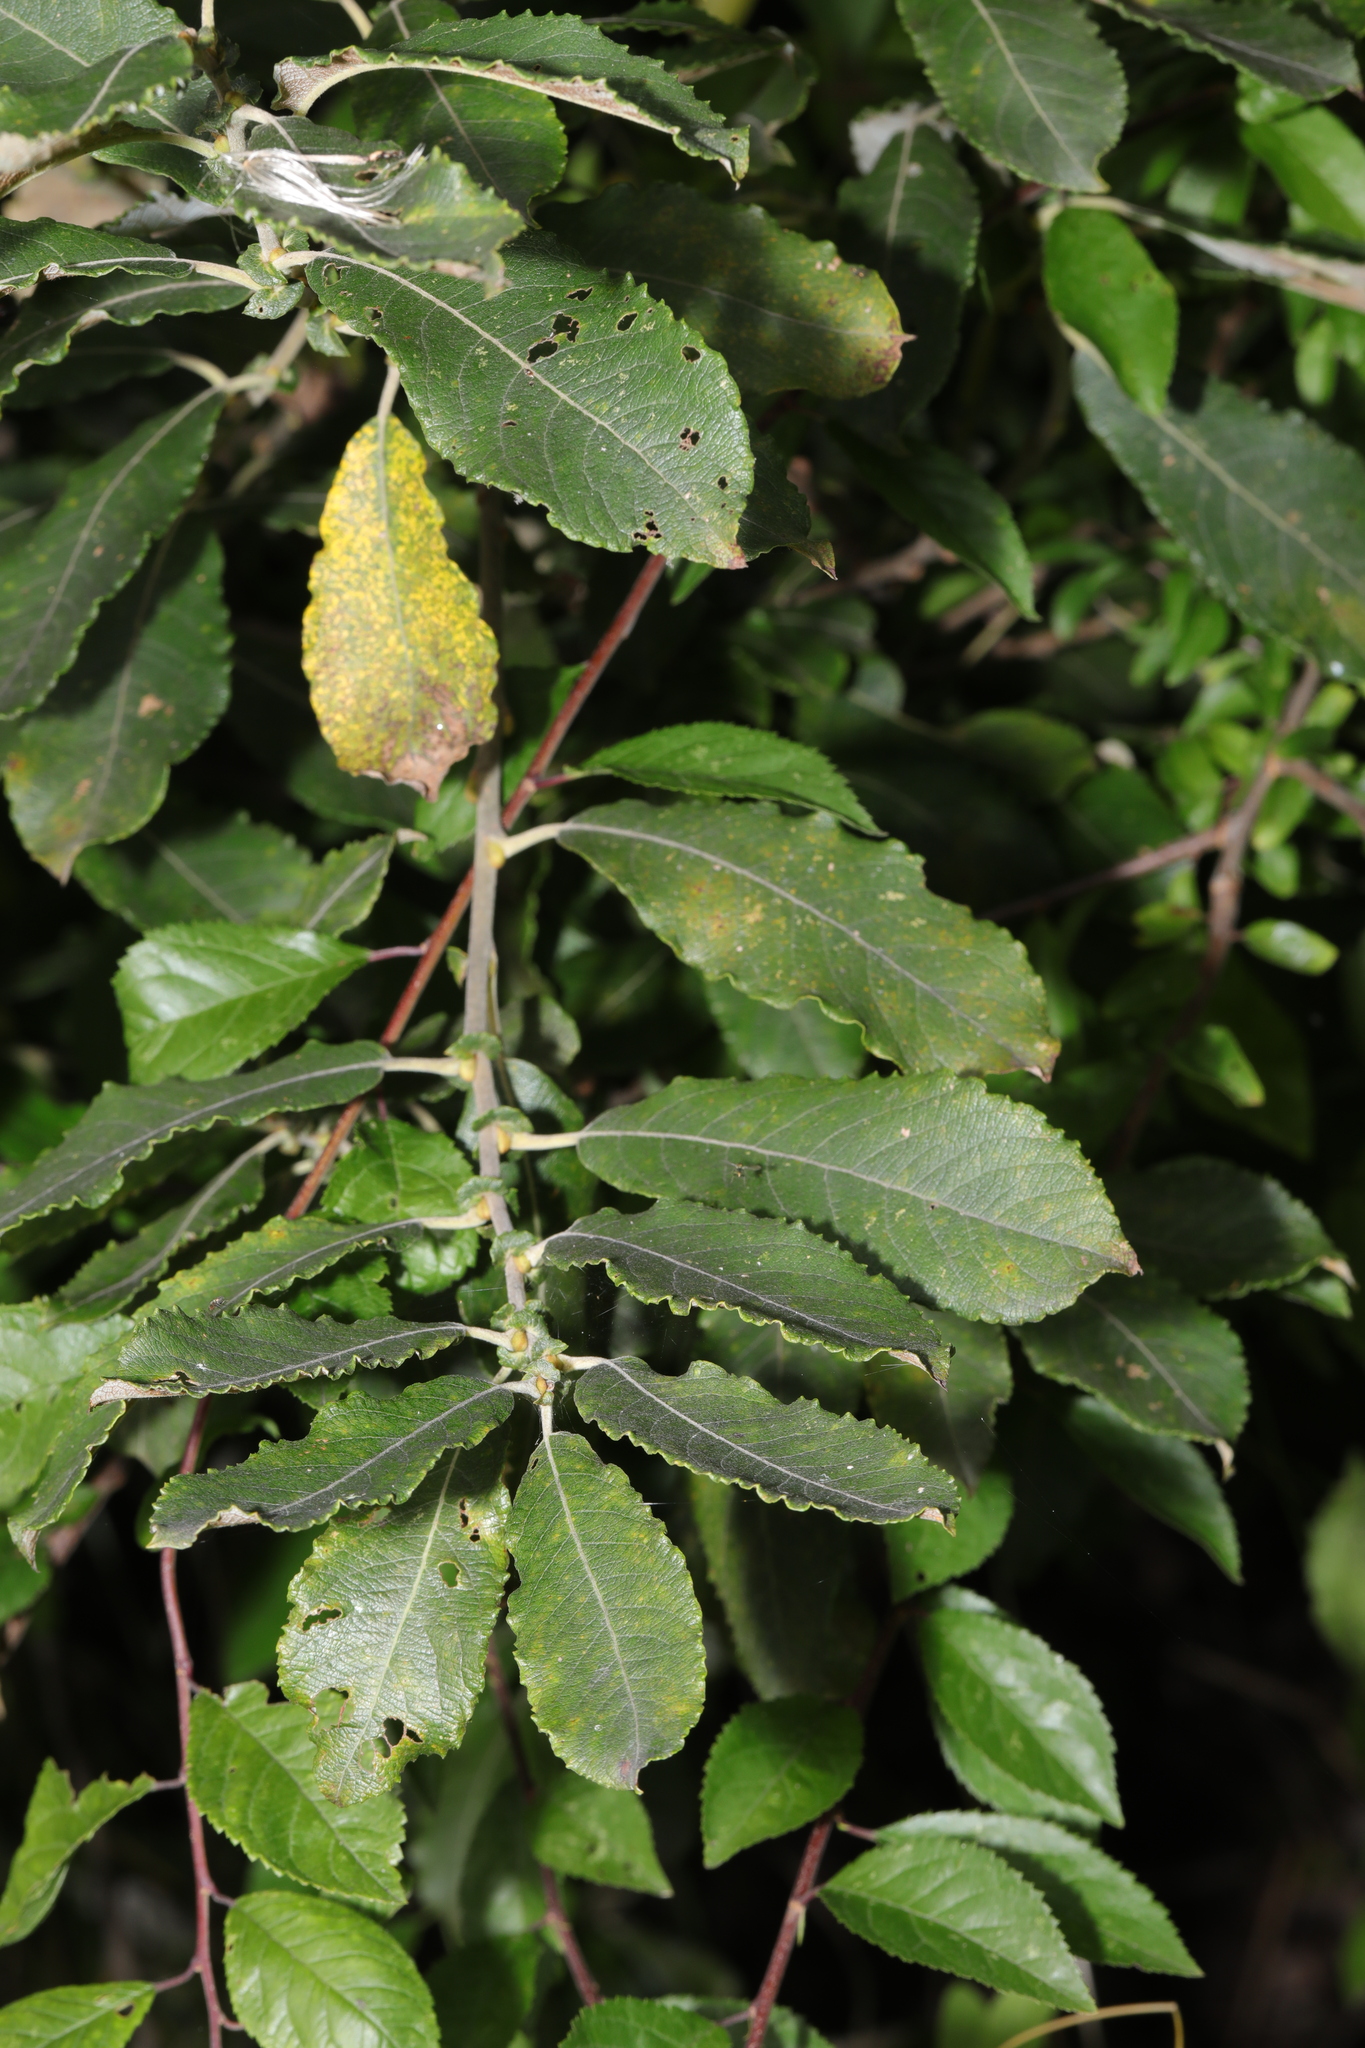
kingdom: Plantae
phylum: Tracheophyta
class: Magnoliopsida
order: Malpighiales
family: Salicaceae
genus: Salix
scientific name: Salix cinerea
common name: Common sallow
